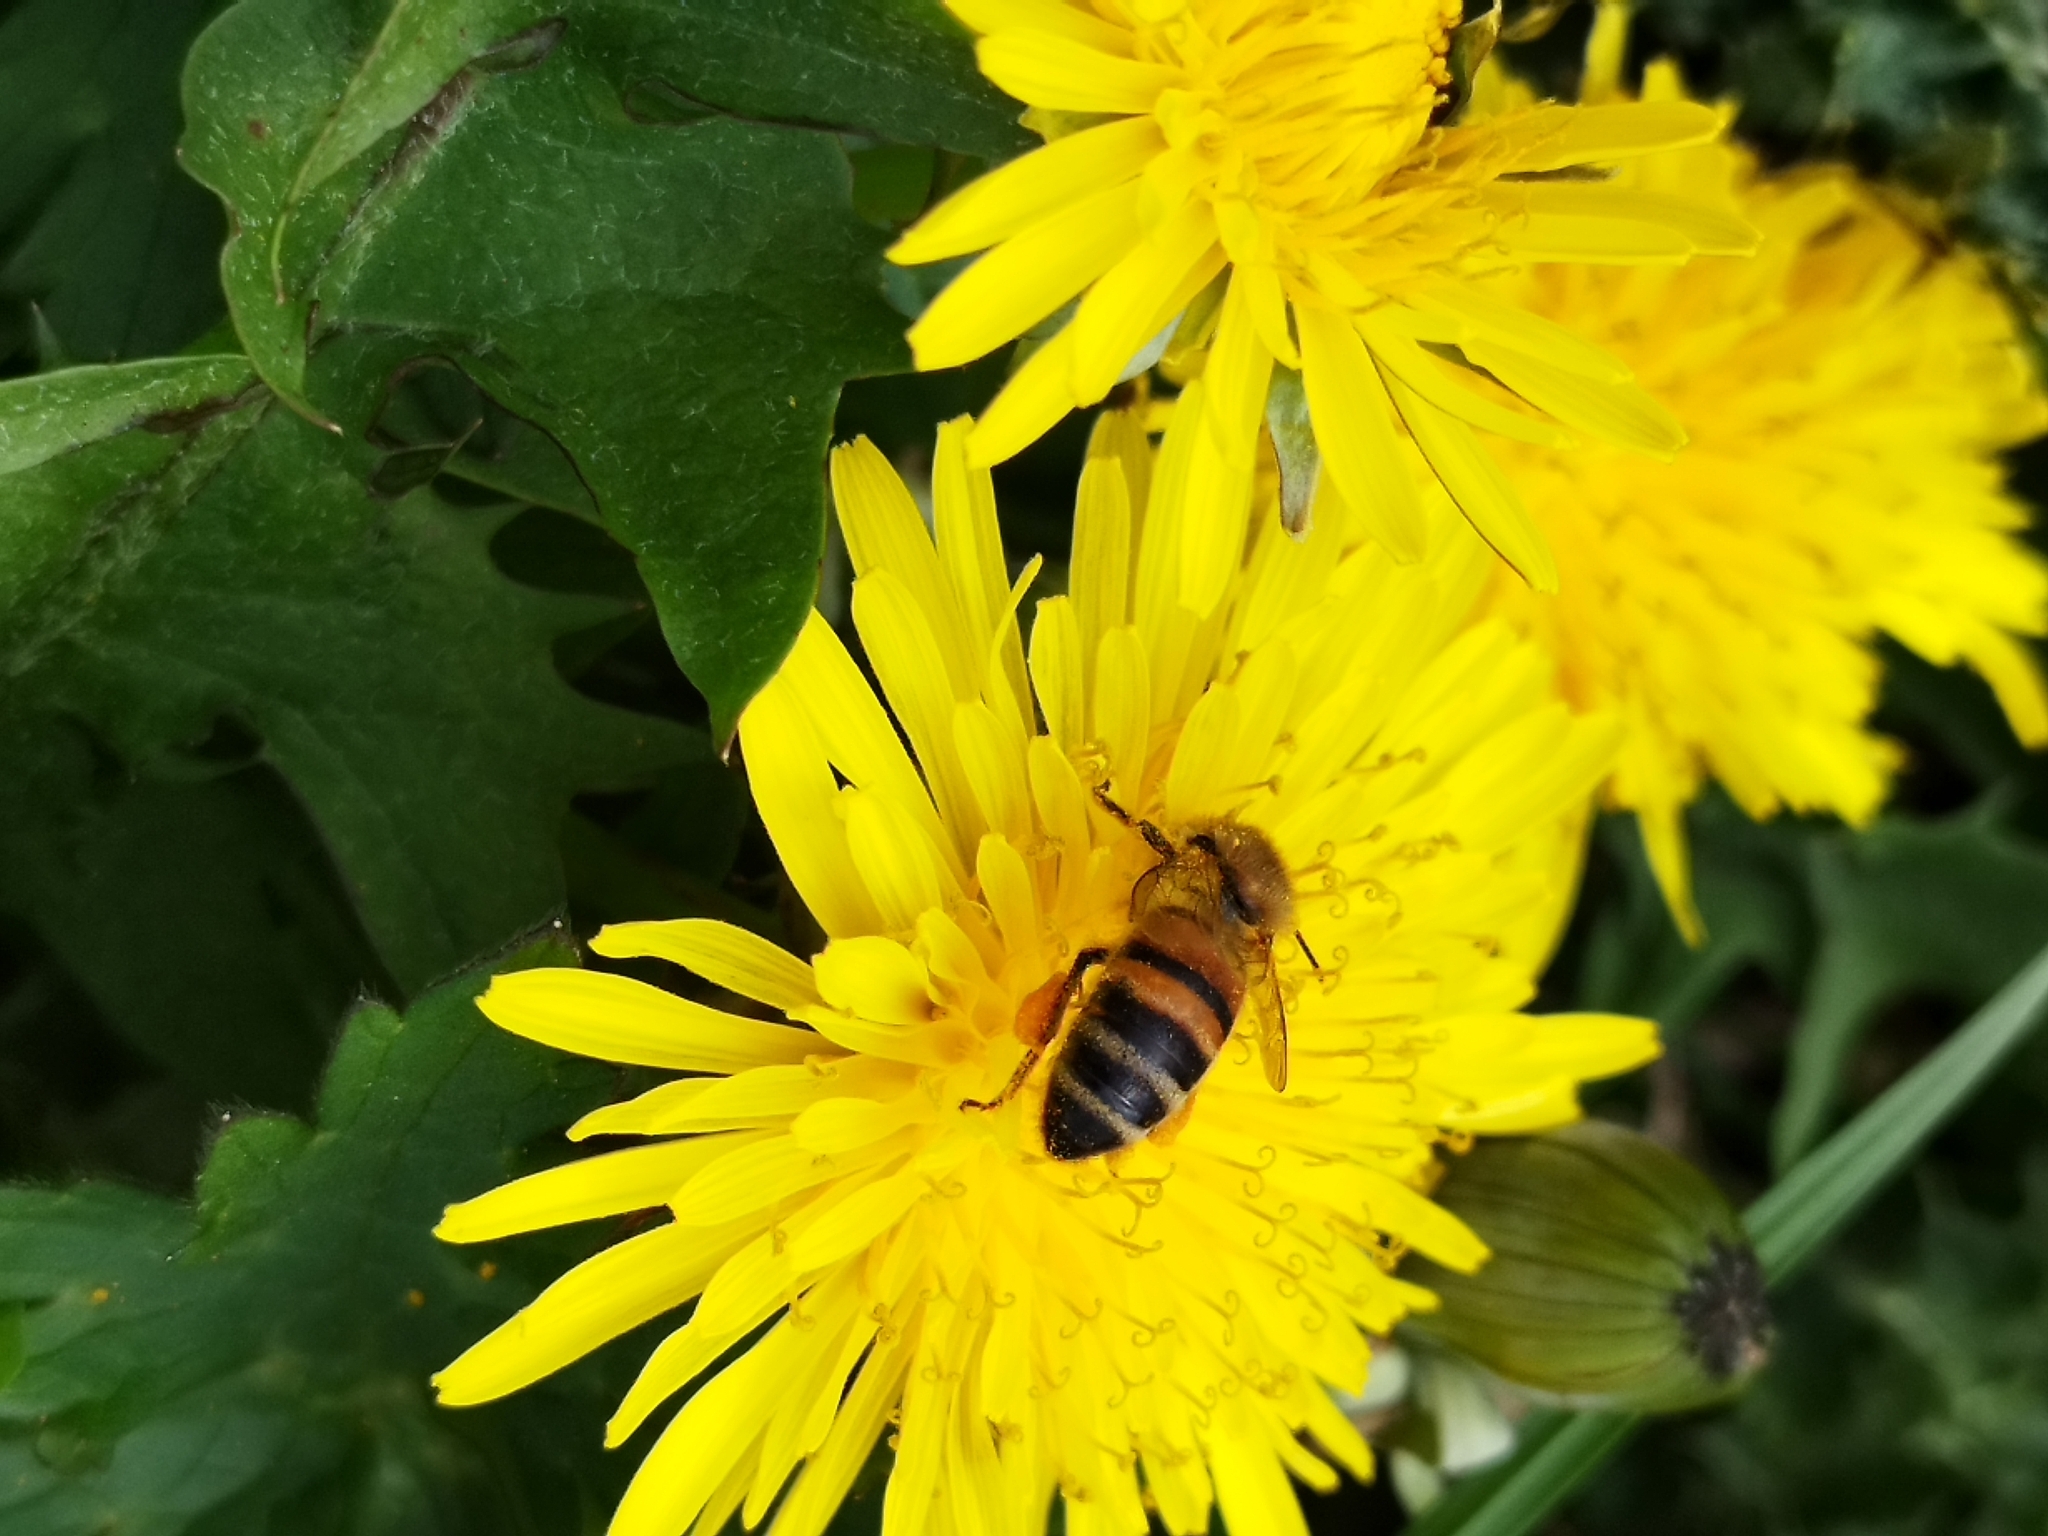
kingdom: Animalia
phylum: Arthropoda
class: Insecta
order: Hymenoptera
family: Apidae
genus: Apis
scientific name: Apis mellifera
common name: Honey bee
